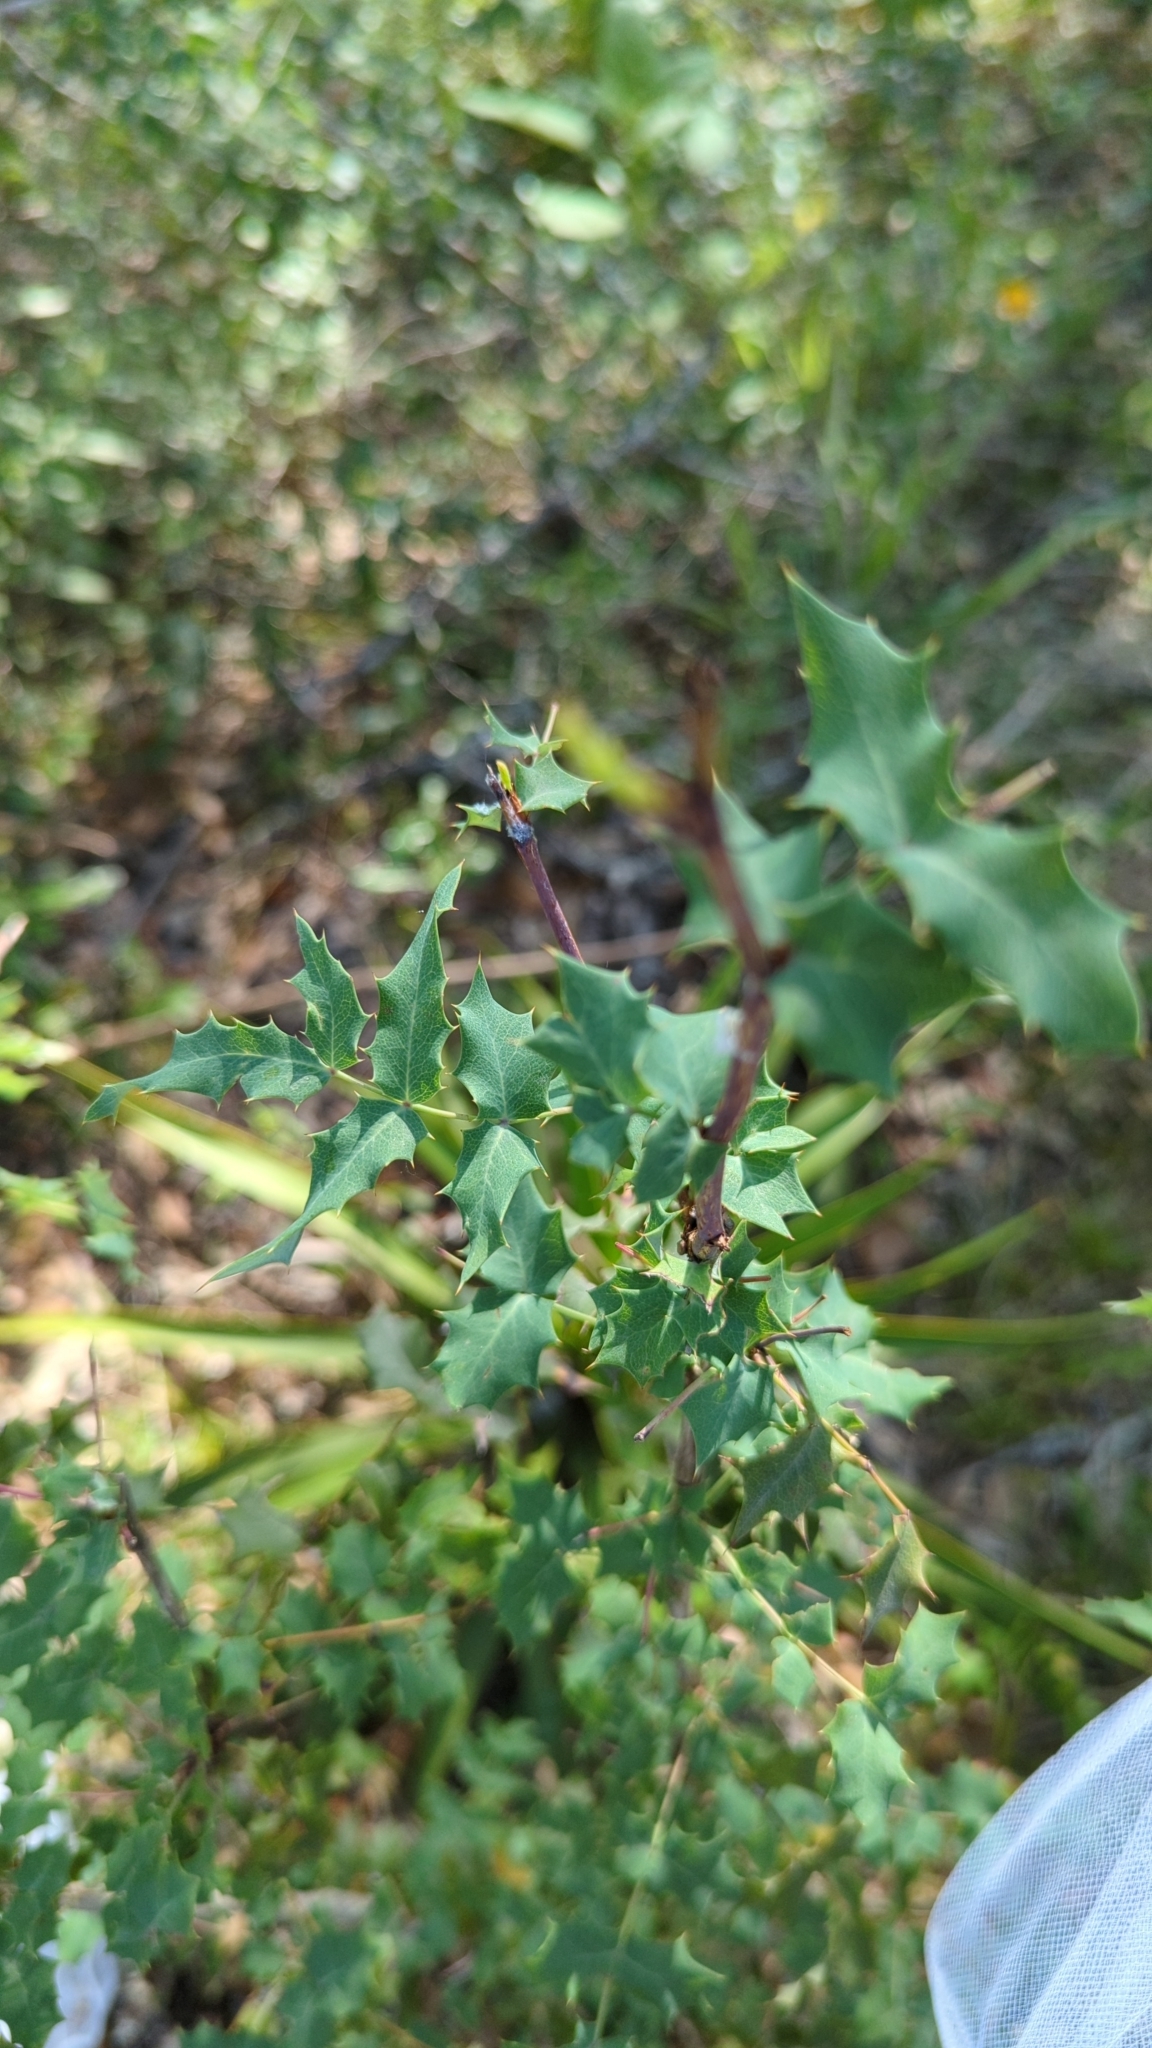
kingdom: Plantae
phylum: Tracheophyta
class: Magnoliopsida
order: Ranunculales
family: Berberidaceae
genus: Berberis
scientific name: Berberis swaseyi
